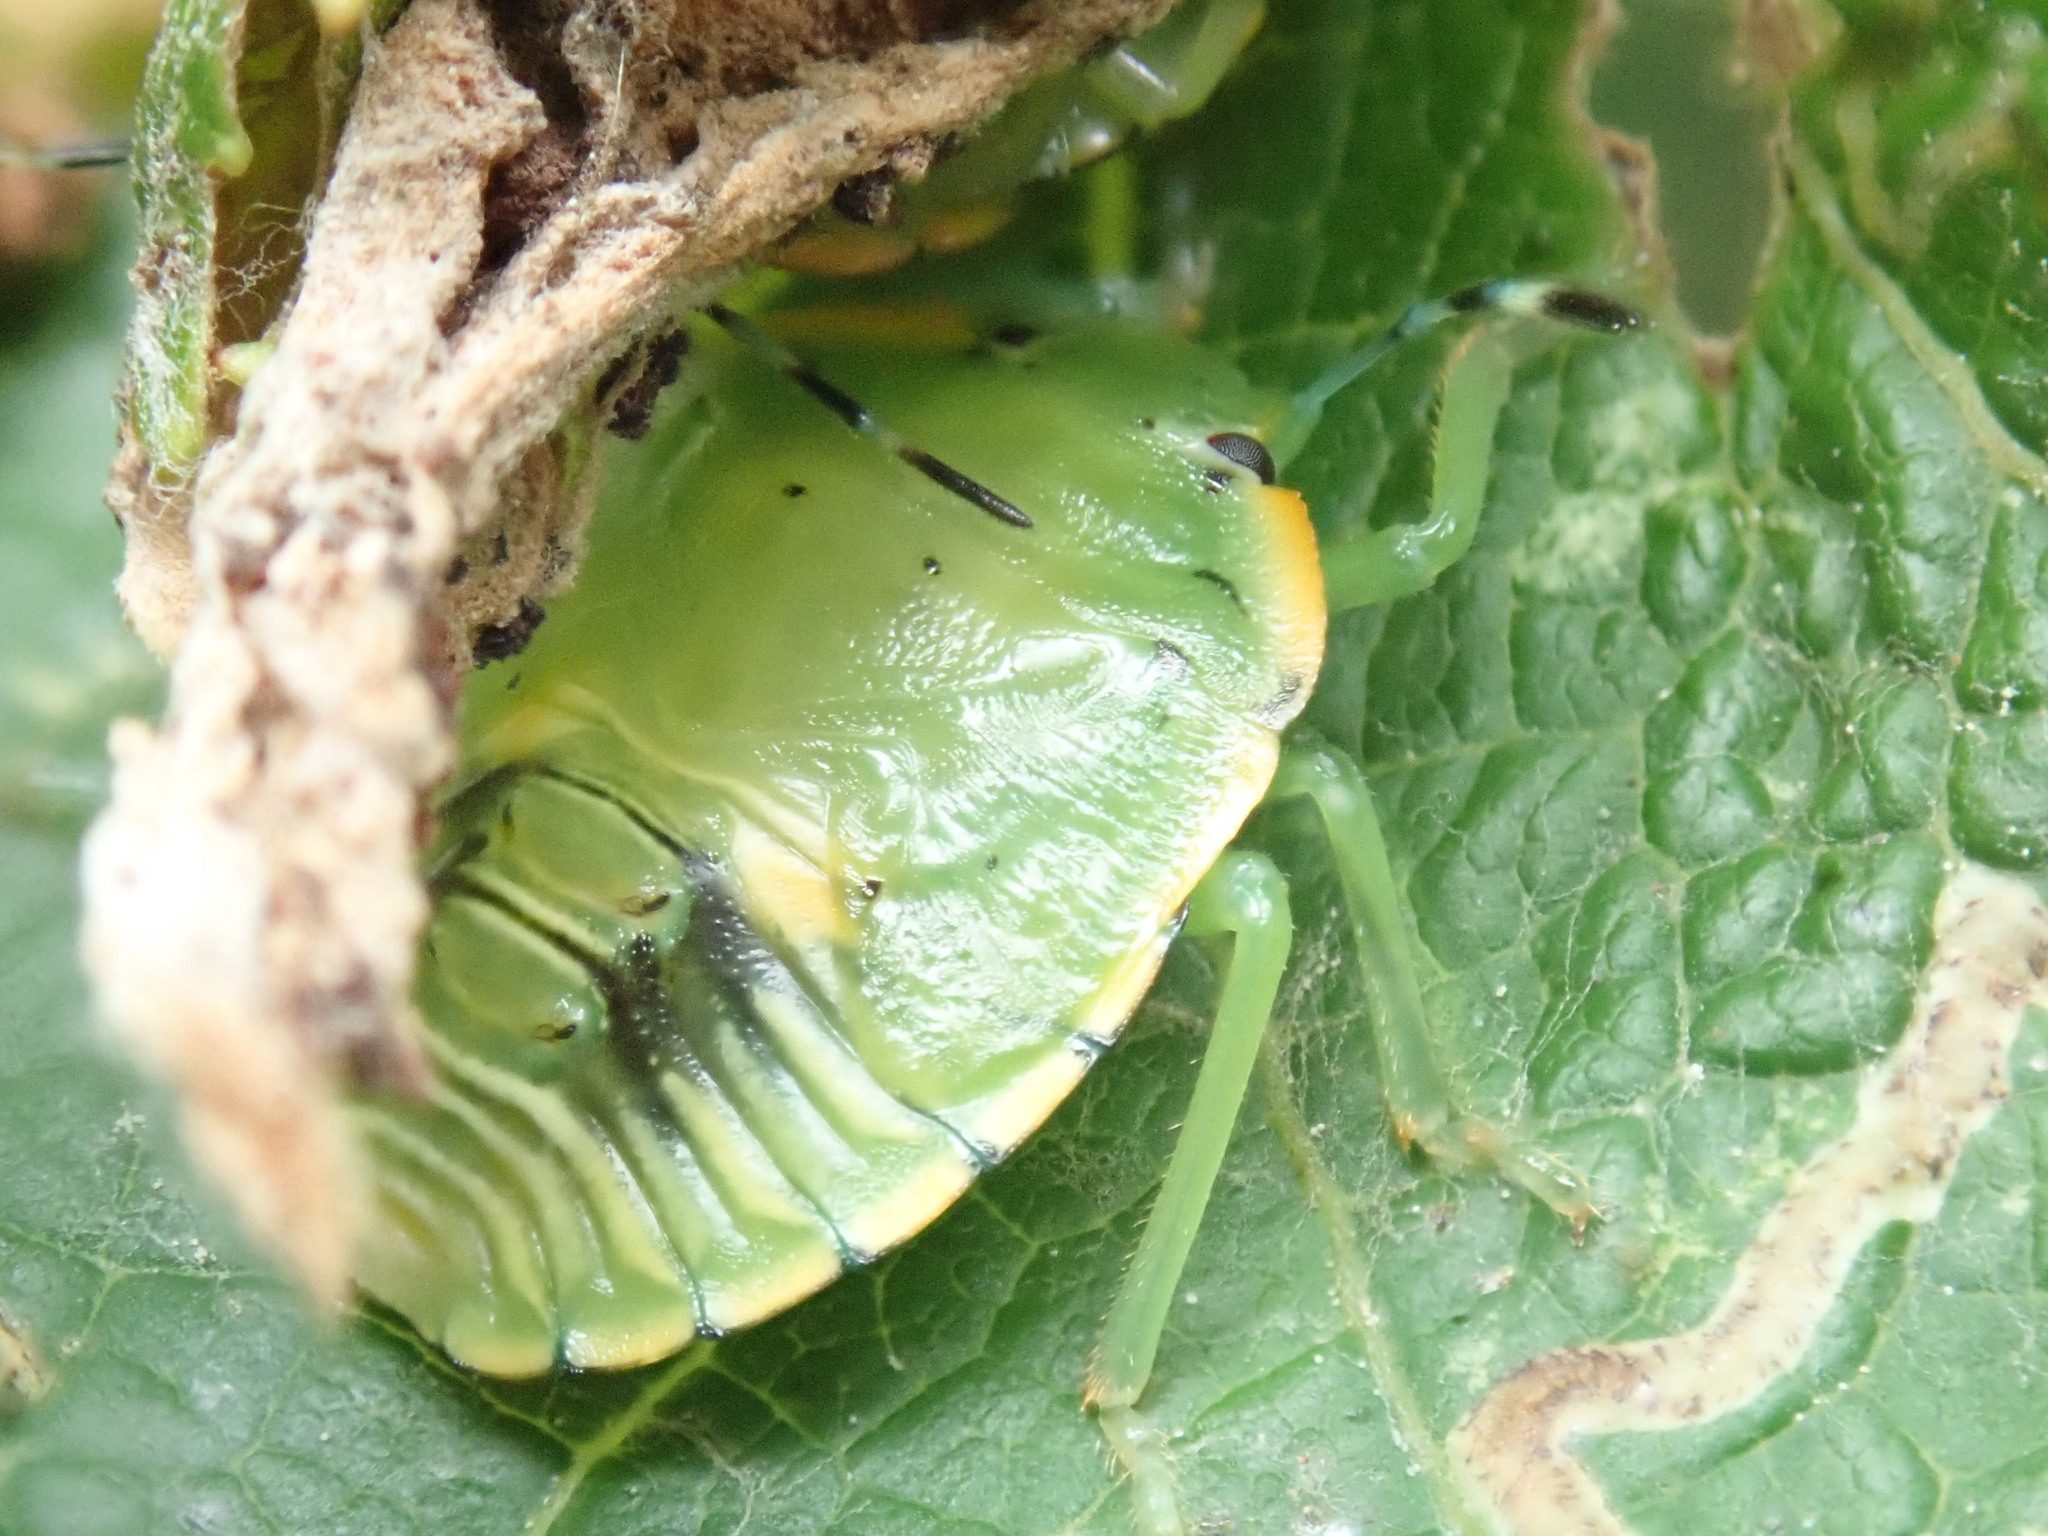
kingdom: Animalia
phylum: Arthropoda
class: Insecta
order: Hemiptera
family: Pentatomidae
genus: Chinavia
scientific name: Chinavia hilaris
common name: Green stink bug
